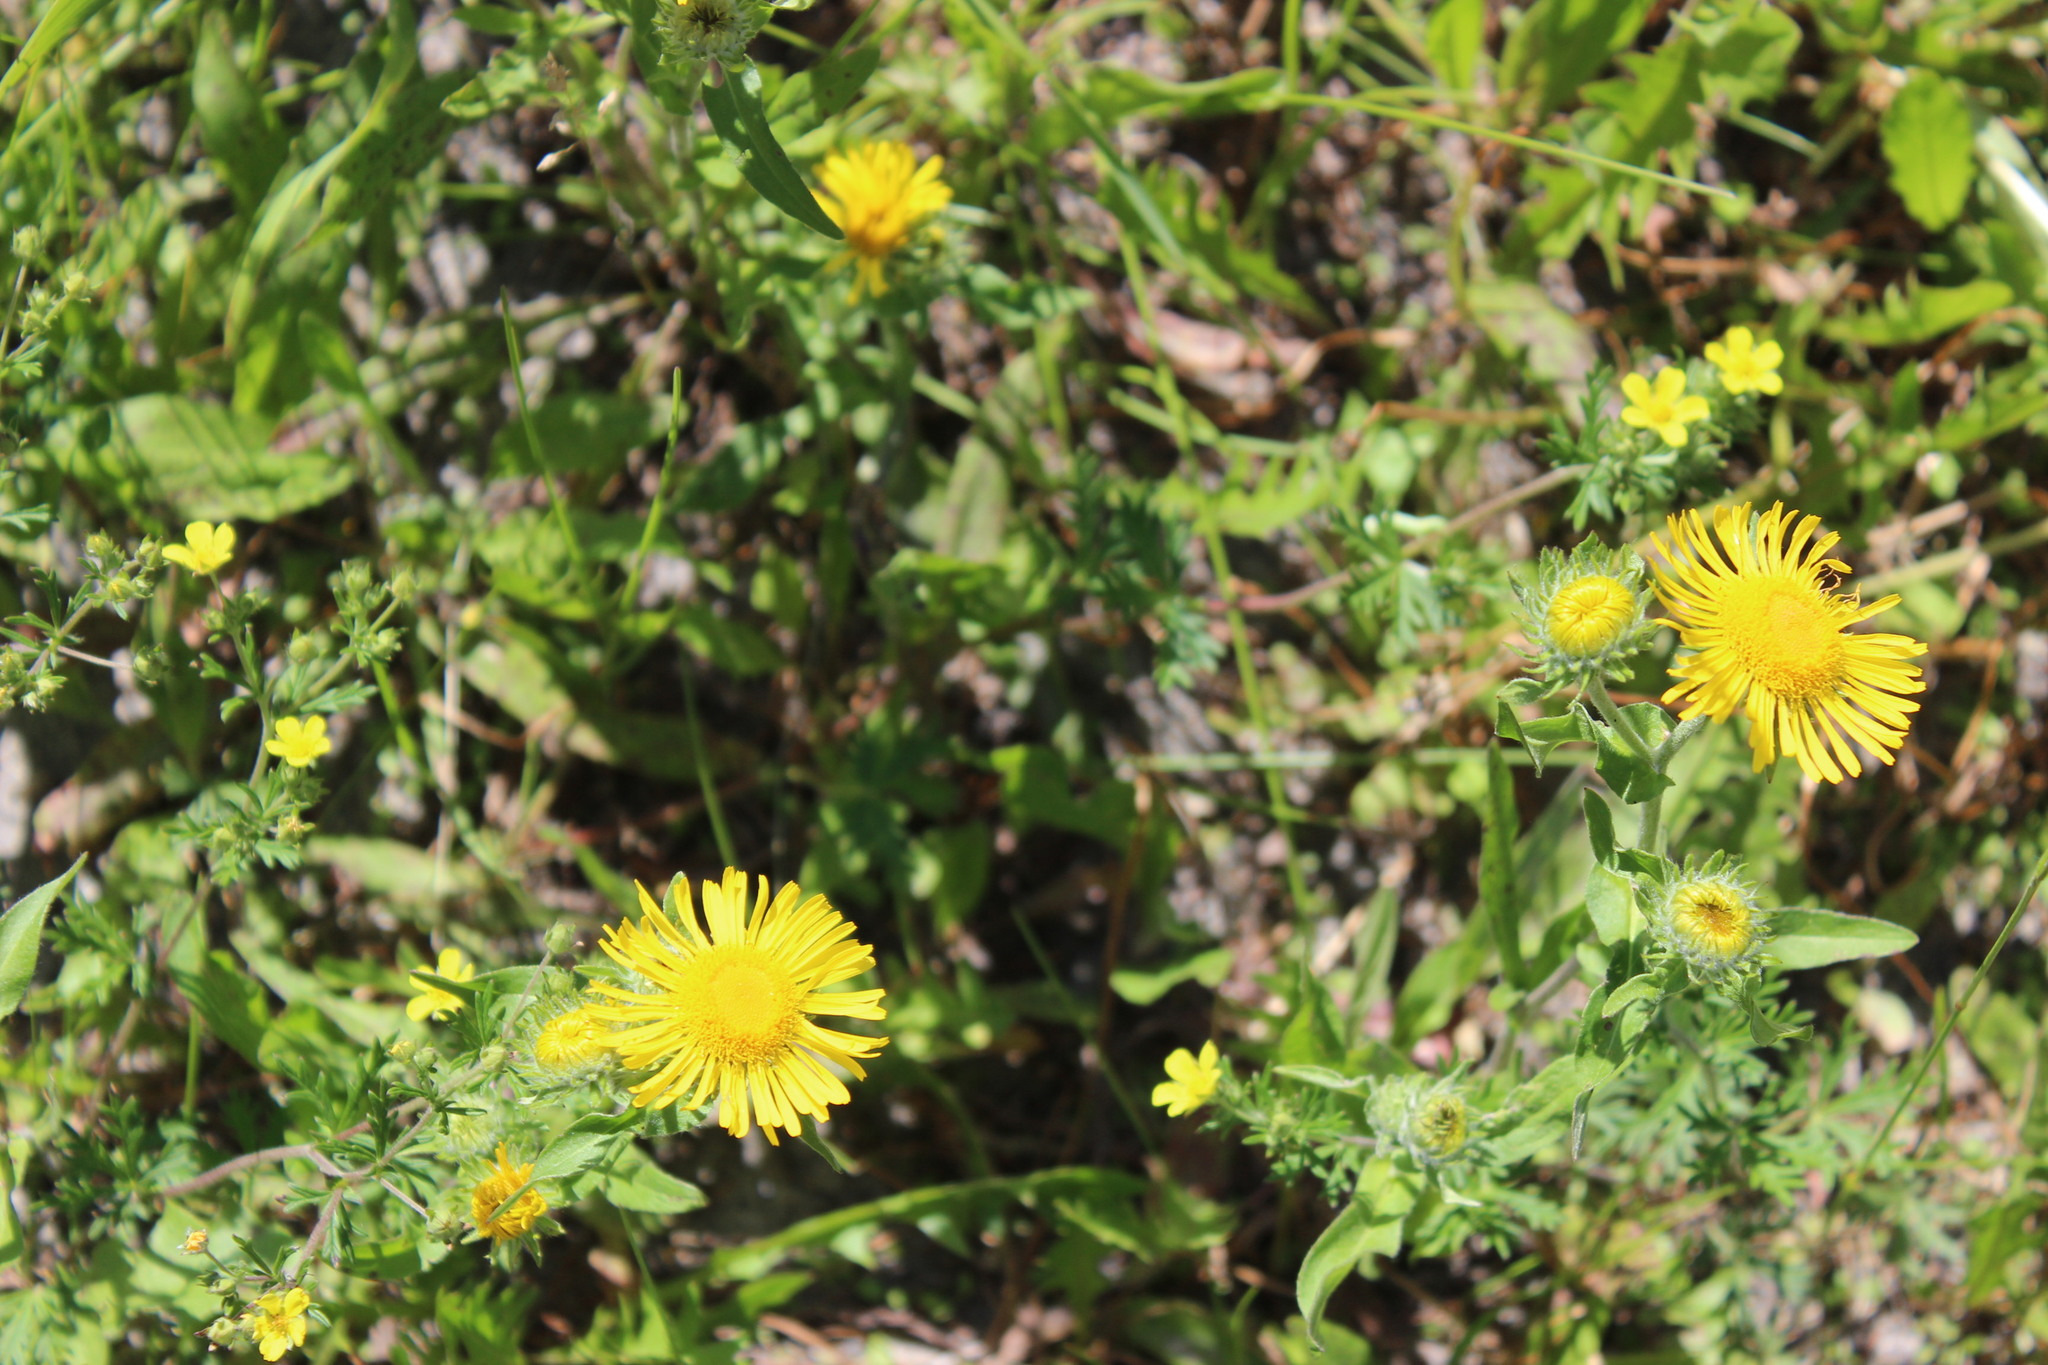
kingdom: Plantae
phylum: Tracheophyta
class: Magnoliopsida
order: Asterales
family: Asteraceae
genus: Pentanema
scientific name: Pentanema britannicum
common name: British elecampane
